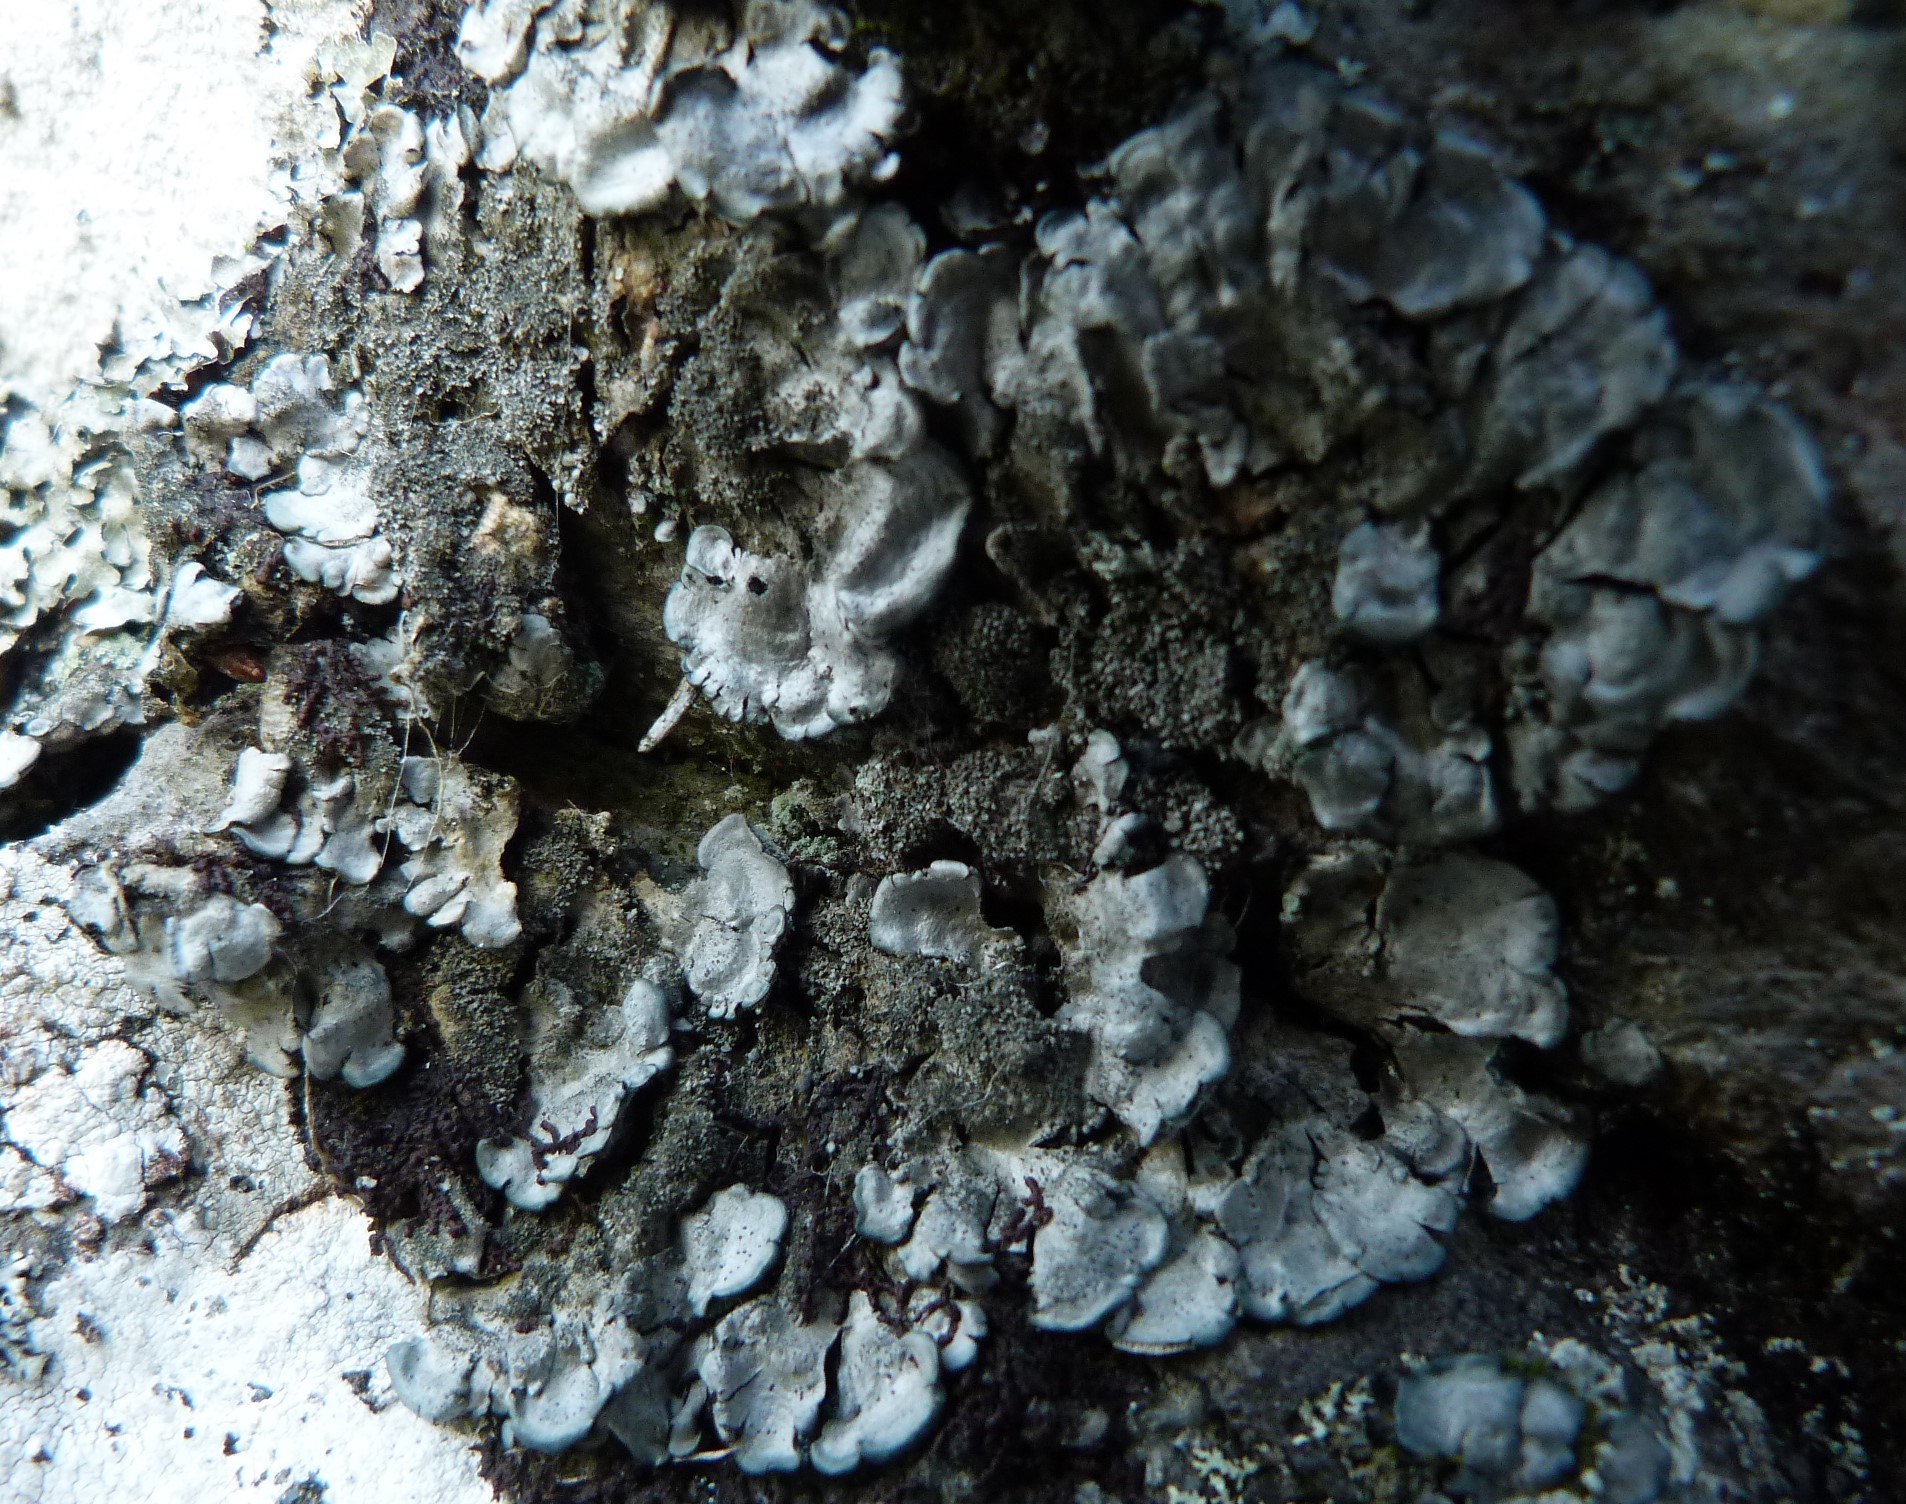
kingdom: Fungi
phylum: Ascomycota
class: Lecanoromycetes
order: Peltigerales
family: Coccocarpiaceae
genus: Coccocarpia
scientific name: Coccocarpia palmicola
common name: Salted shell lichen
